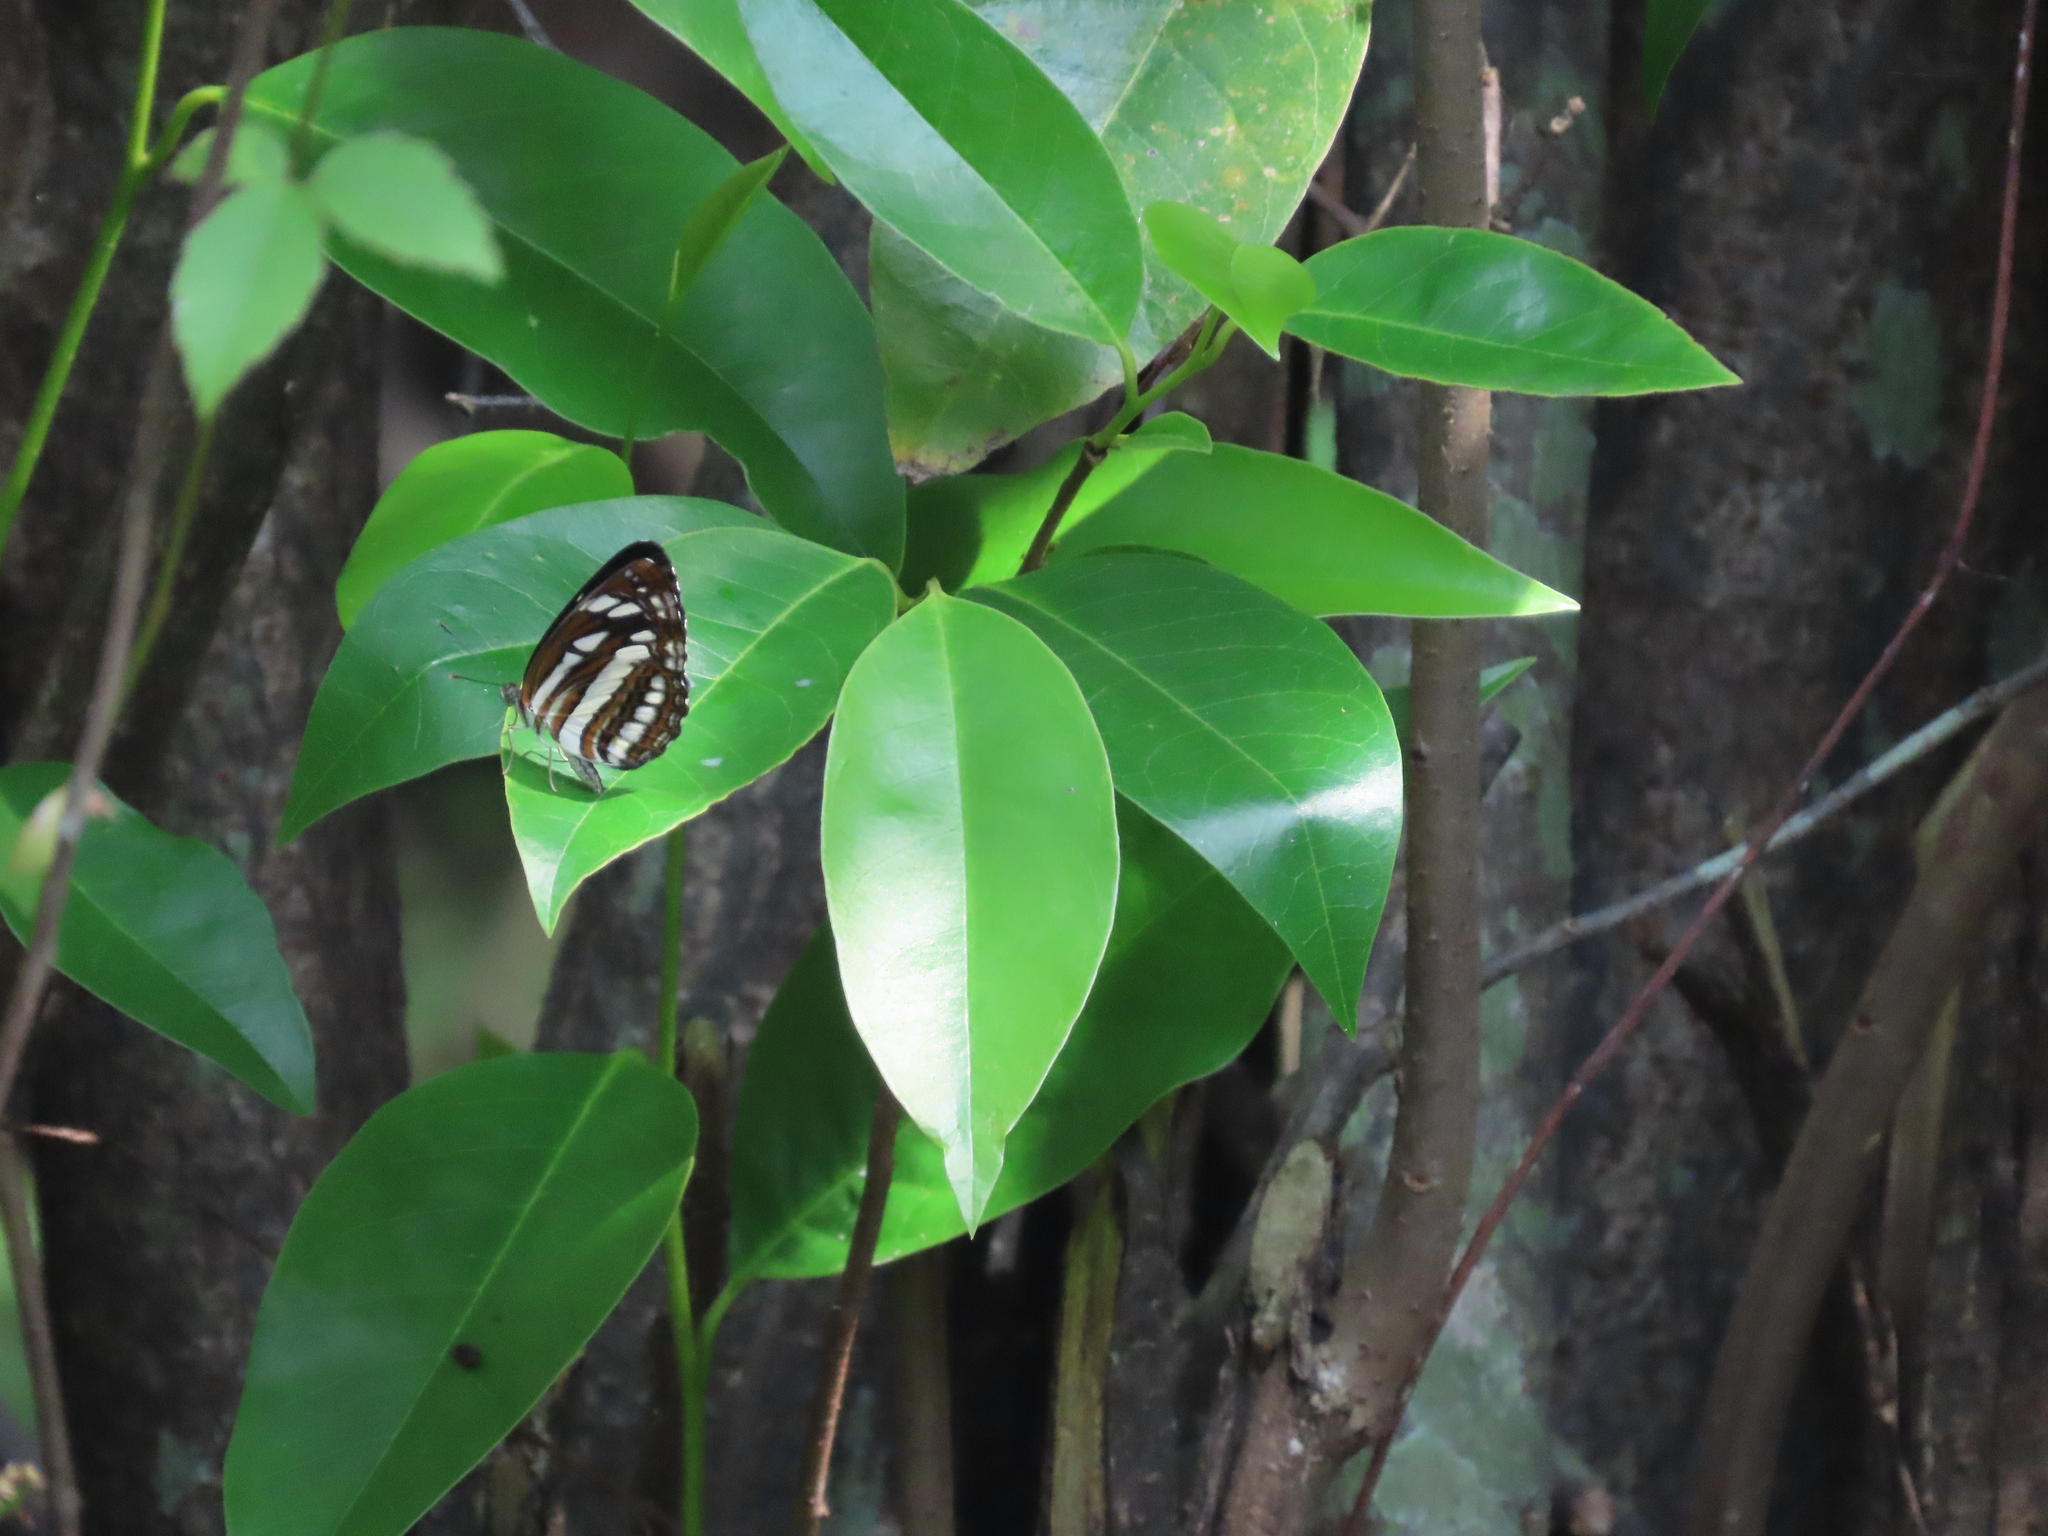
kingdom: Animalia
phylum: Arthropoda
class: Insecta
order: Lepidoptera
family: Nymphalidae
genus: Neptis
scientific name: Neptis hylas
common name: Common sailer
